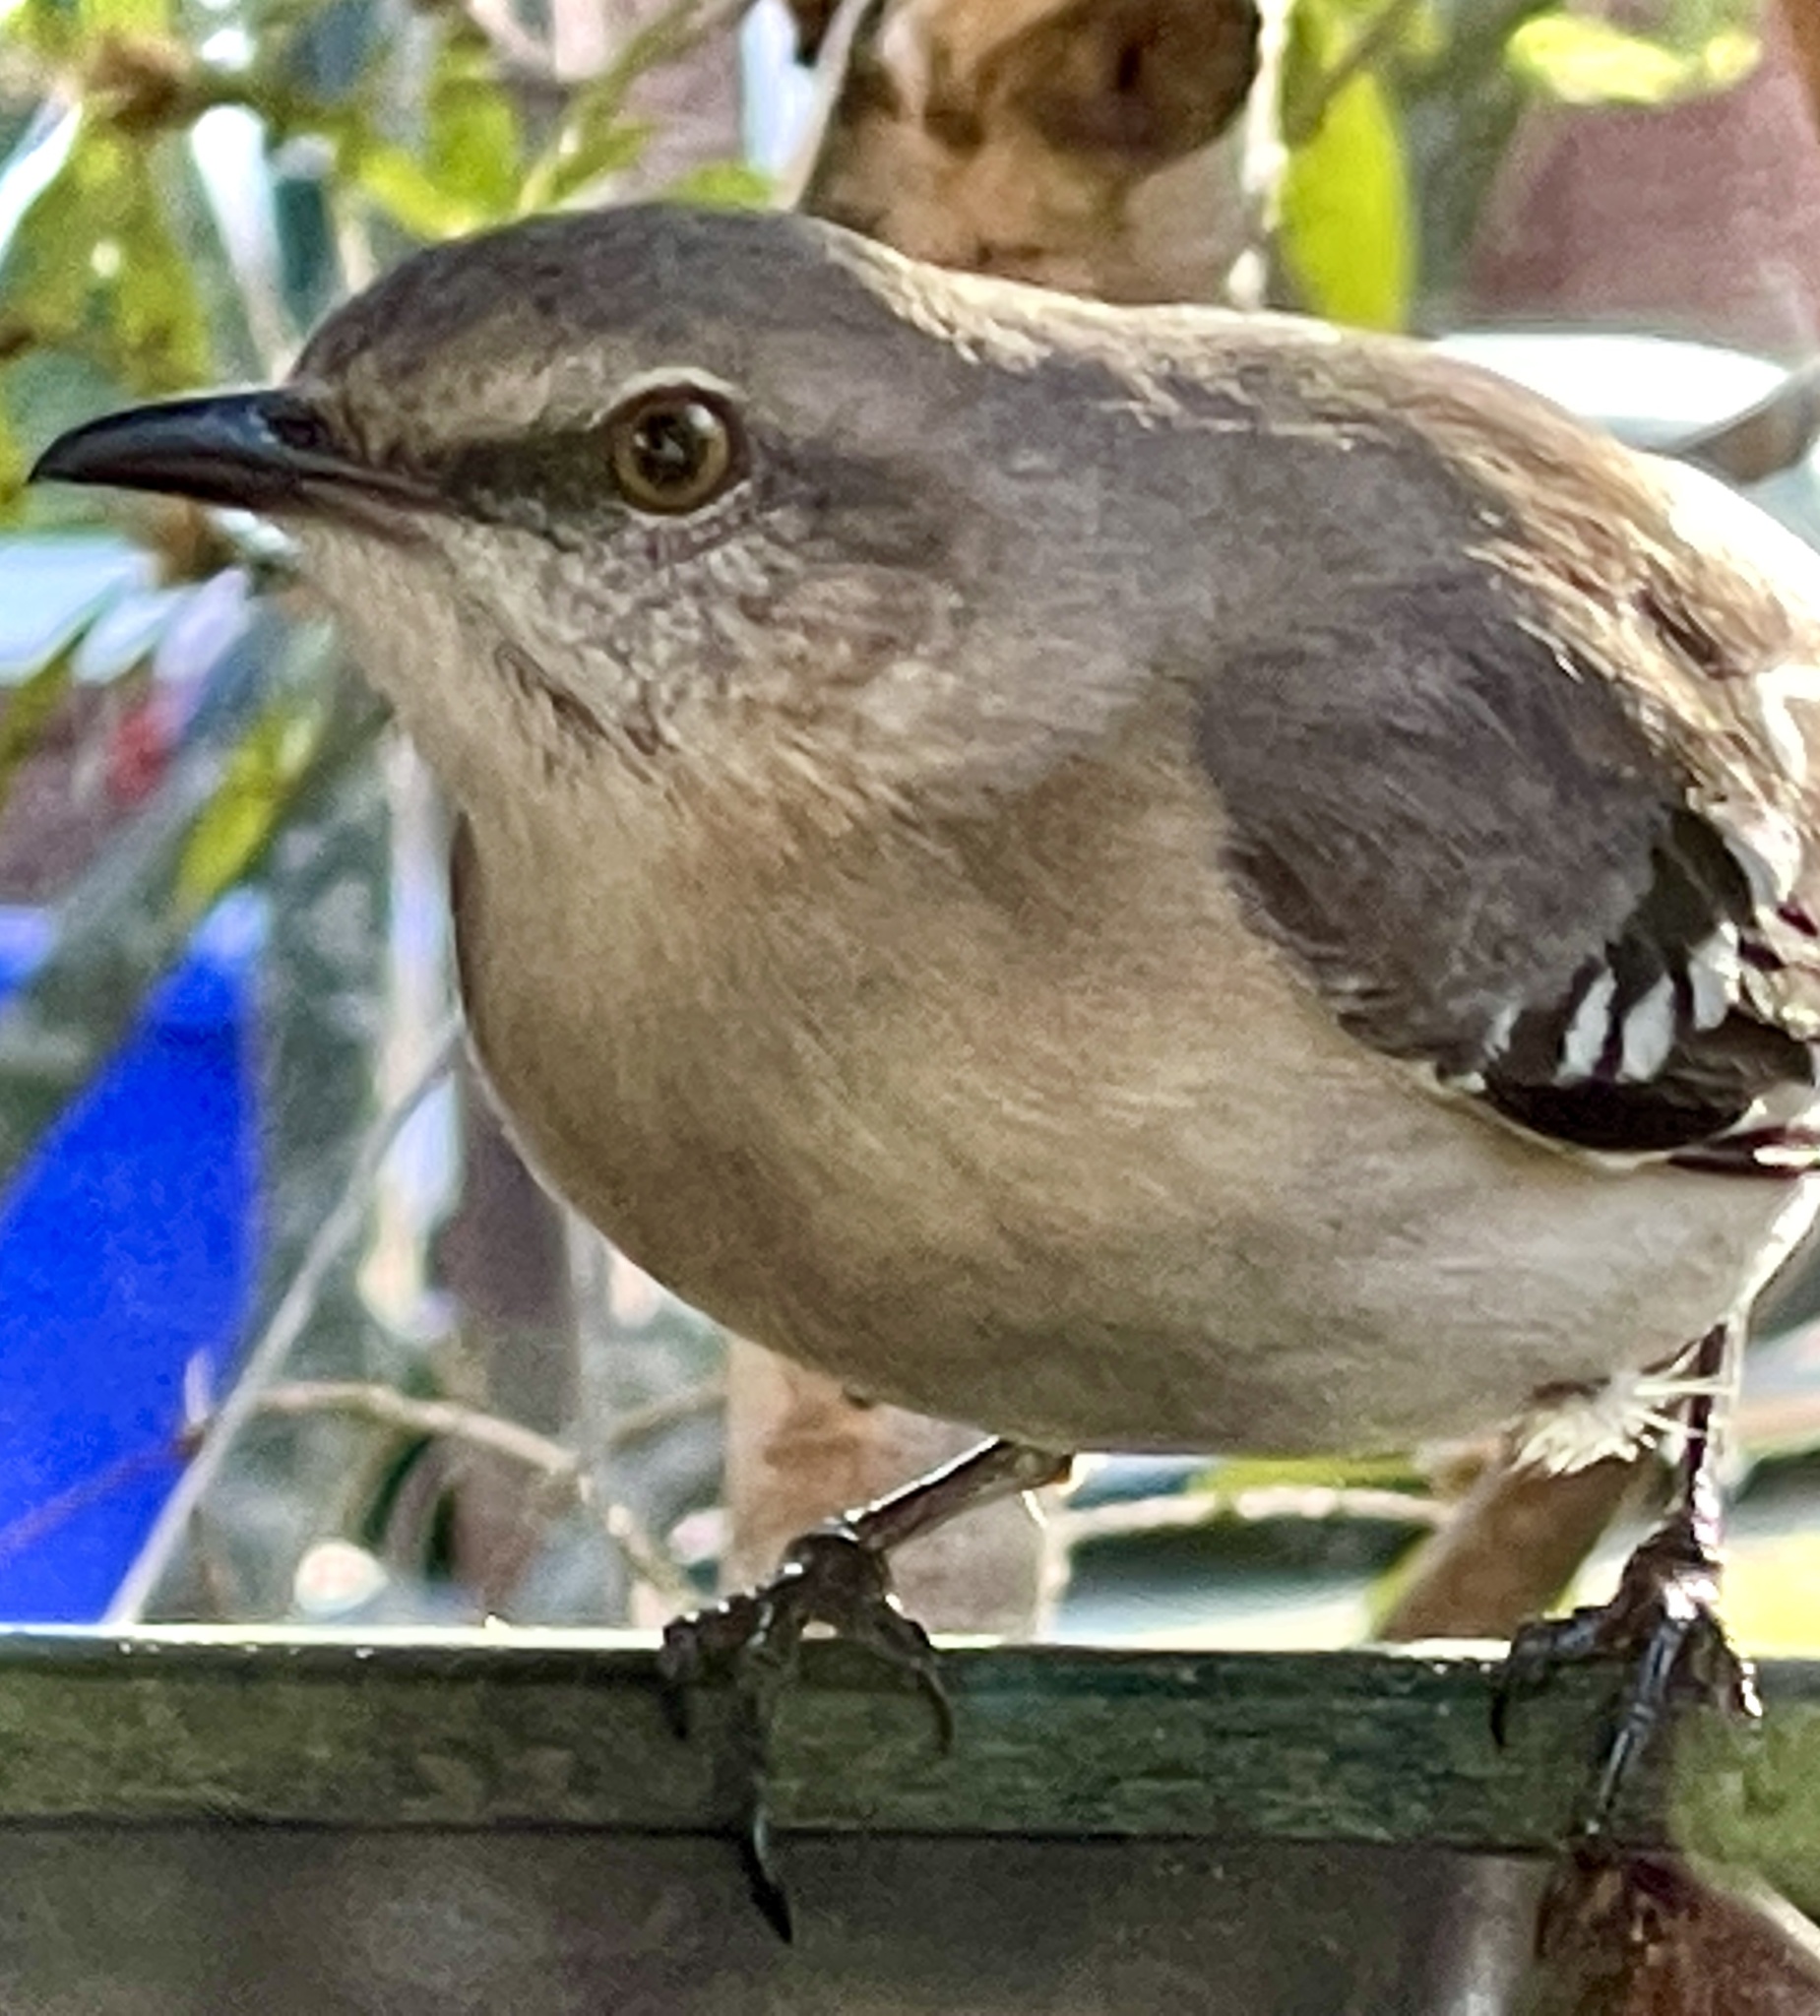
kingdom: Animalia
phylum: Chordata
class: Aves
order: Passeriformes
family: Mimidae
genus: Mimus
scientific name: Mimus polyglottos
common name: Northern mockingbird
